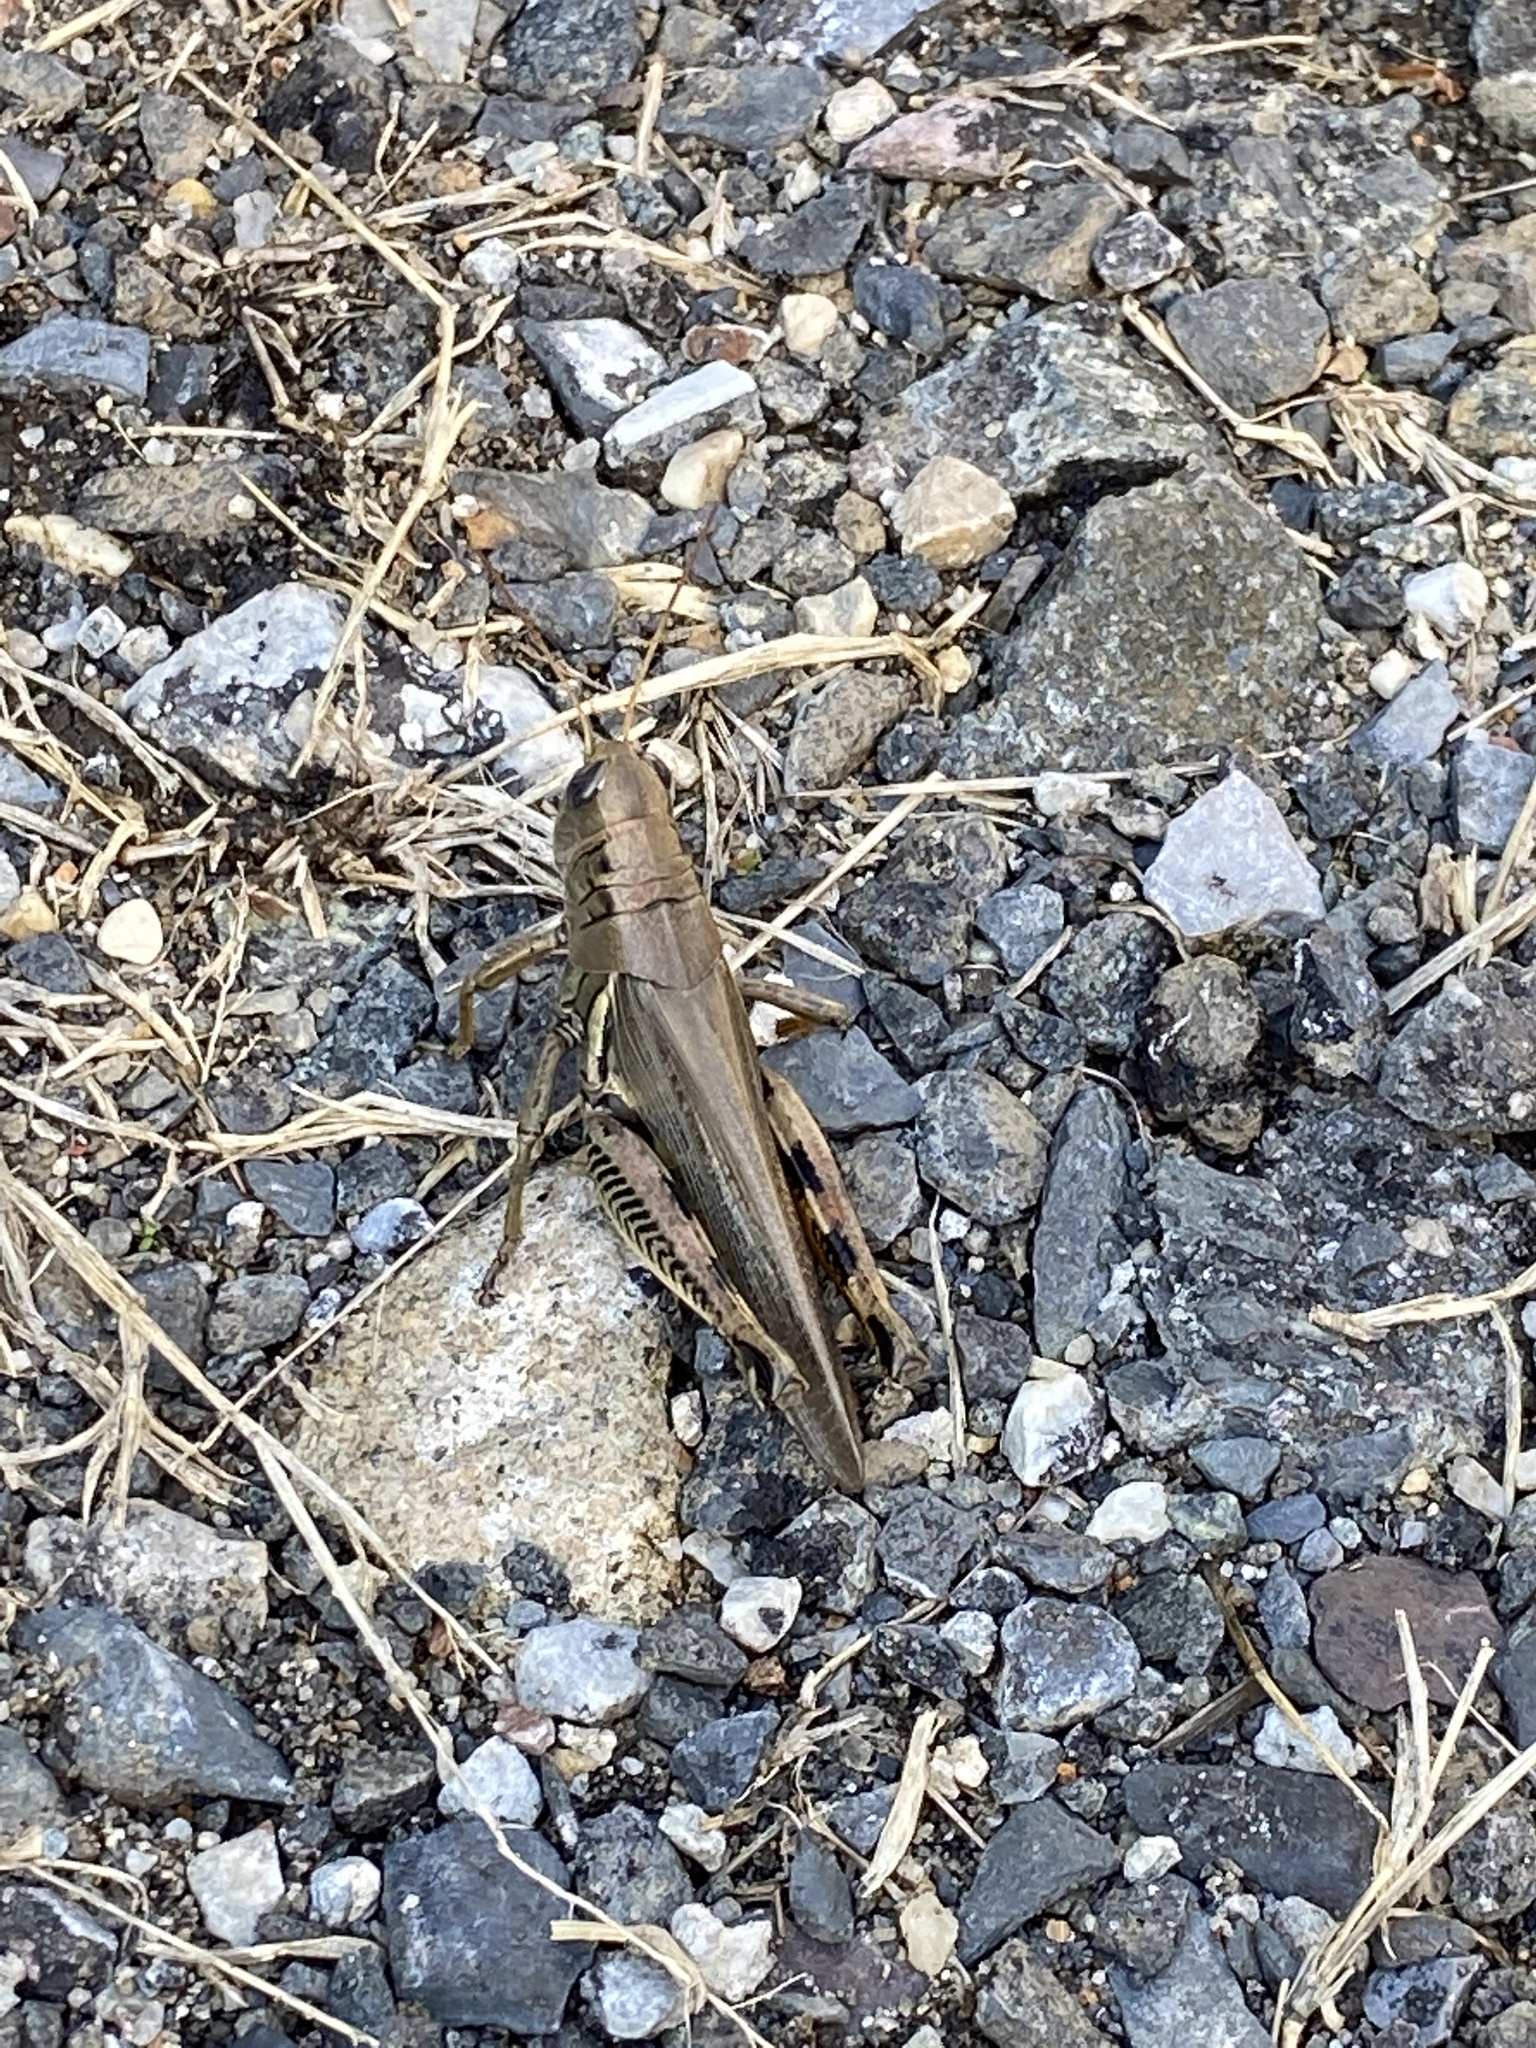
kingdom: Animalia
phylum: Arthropoda
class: Insecta
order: Orthoptera
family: Acrididae
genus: Melanoplus
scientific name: Melanoplus differentialis
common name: Differential grasshopper
